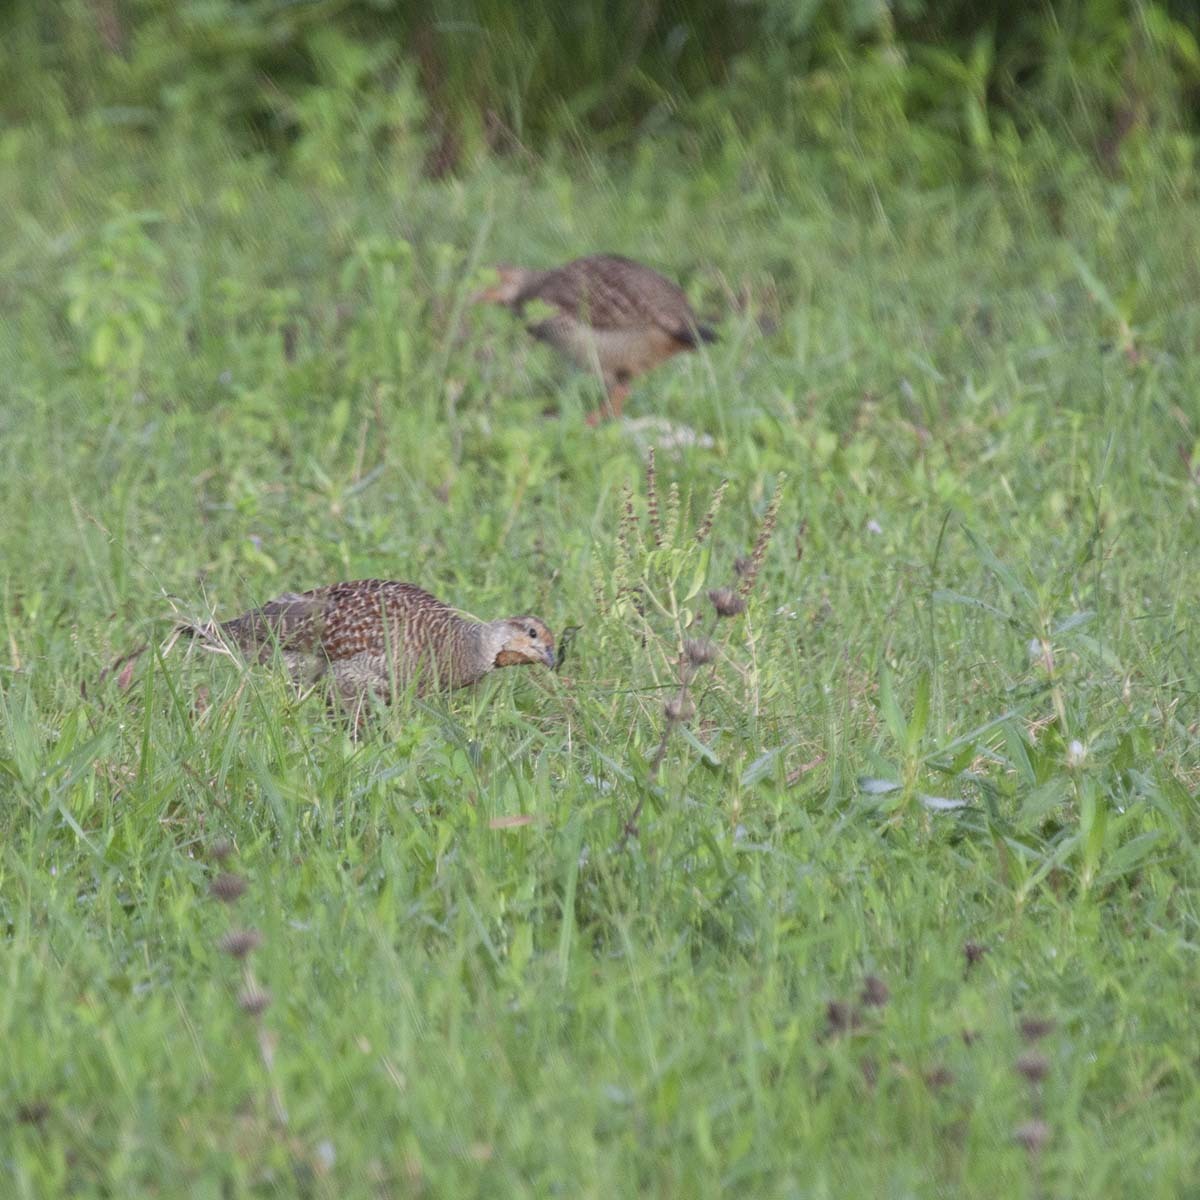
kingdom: Animalia
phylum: Chordata
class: Aves
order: Galliformes
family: Phasianidae
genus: Ortygornis
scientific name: Ortygornis pondicerianus
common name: Grey francolin
